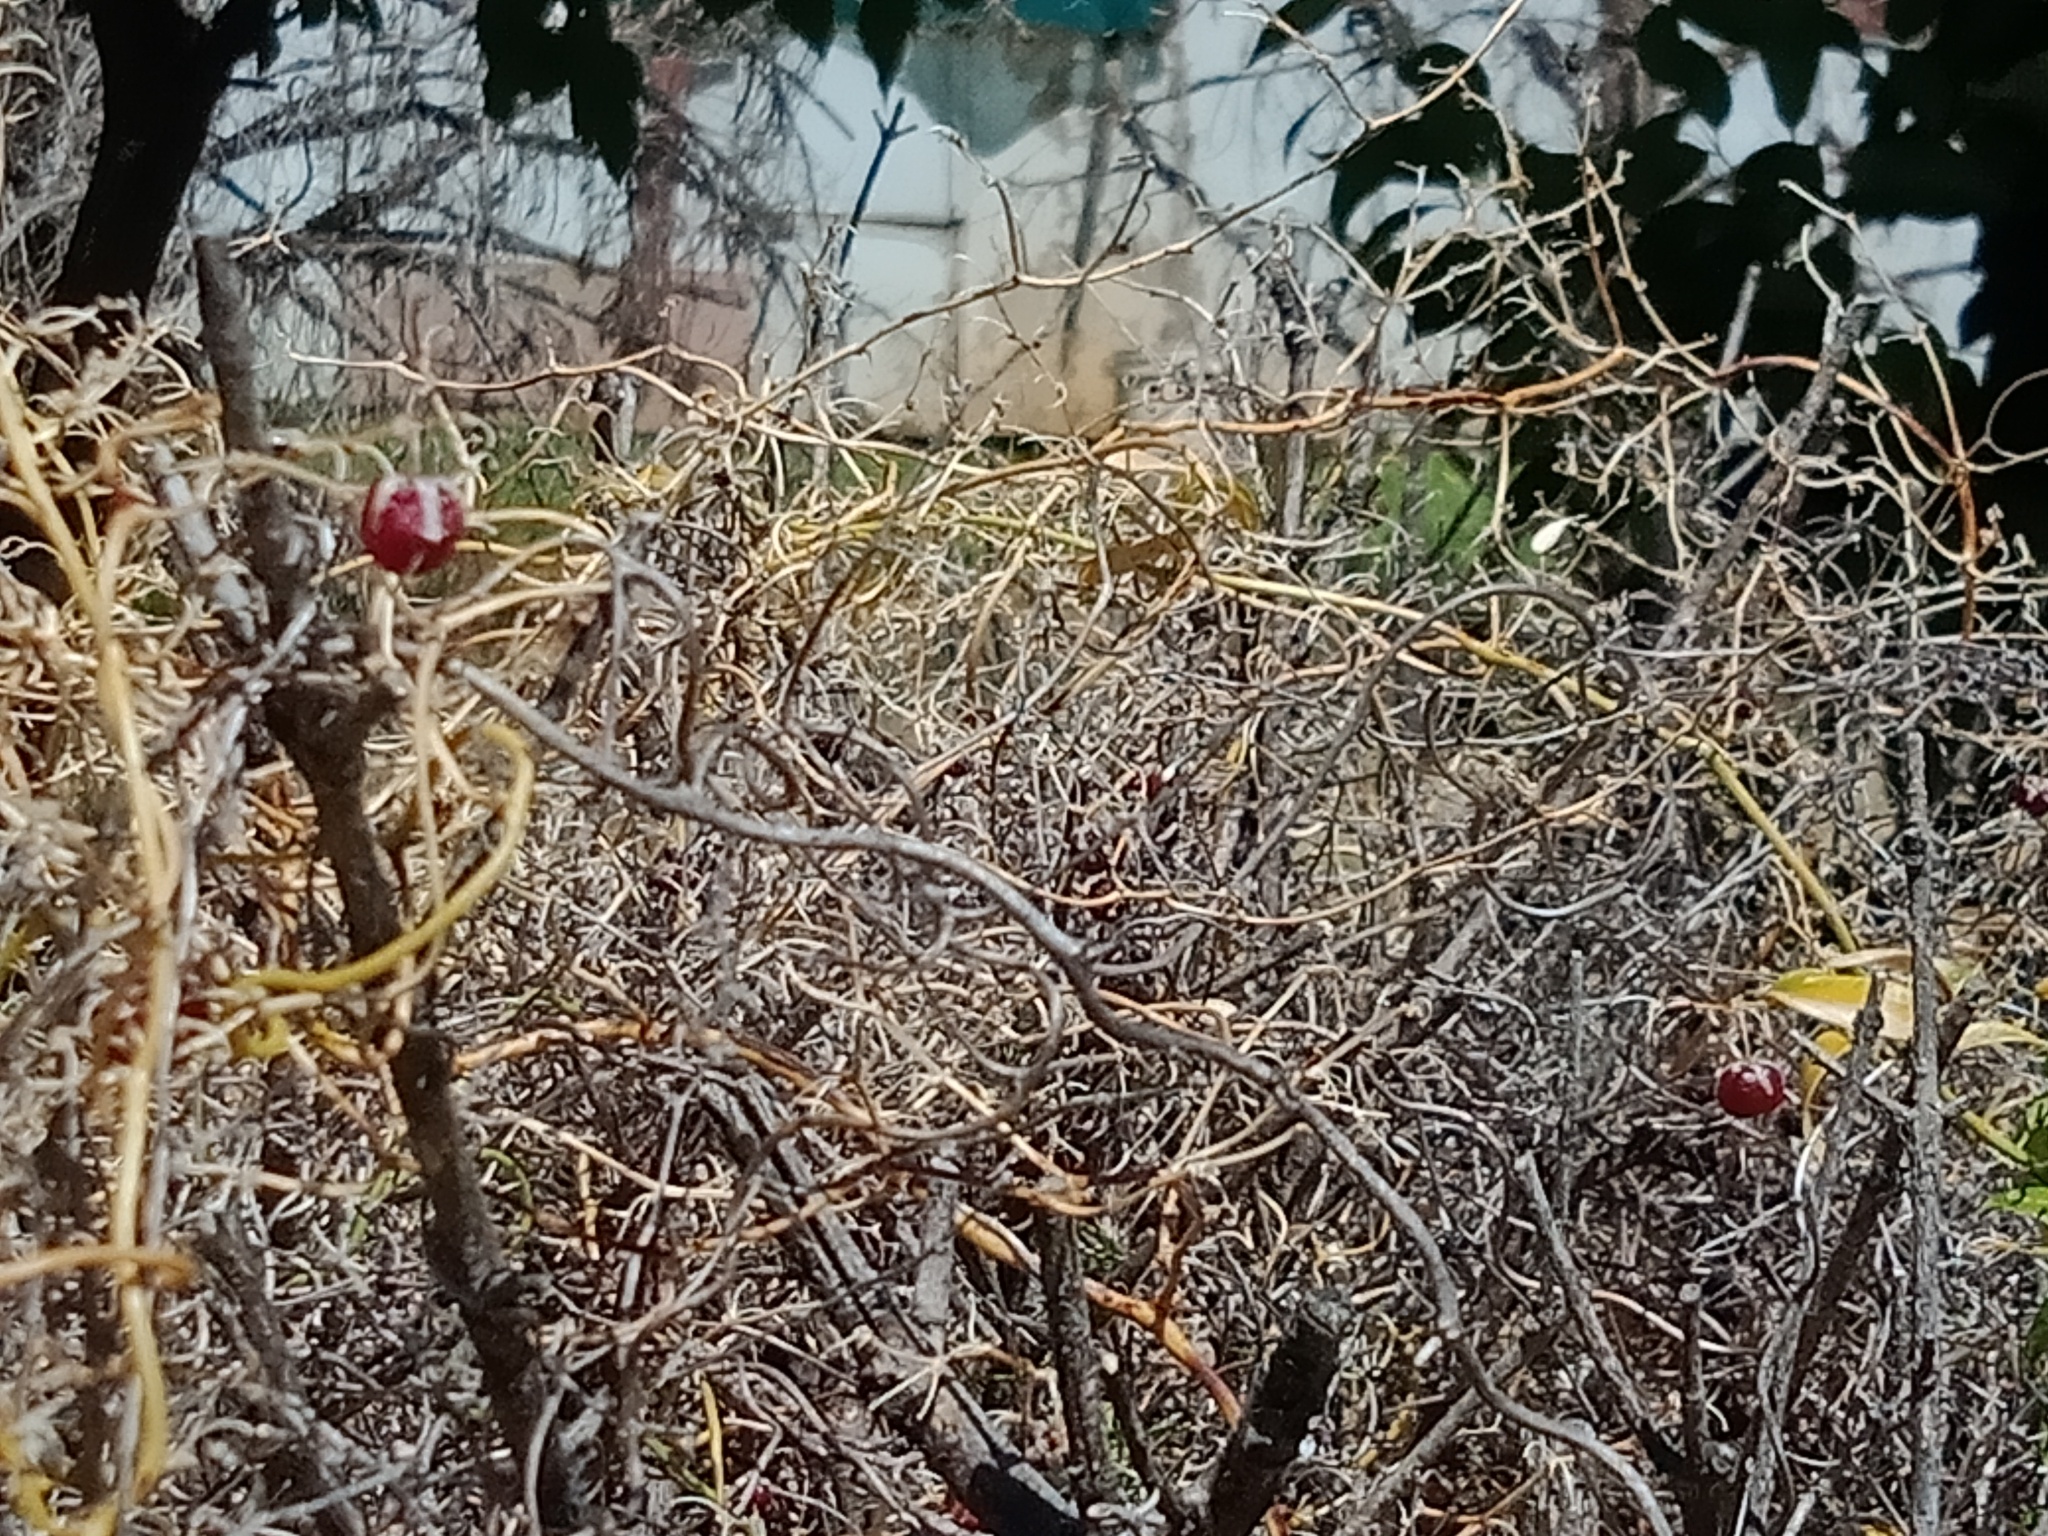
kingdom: Plantae
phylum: Tracheophyta
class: Liliopsida
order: Asparagales
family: Asparagaceae
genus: Asparagus
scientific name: Asparagus asparagoides
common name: African asparagus fern
